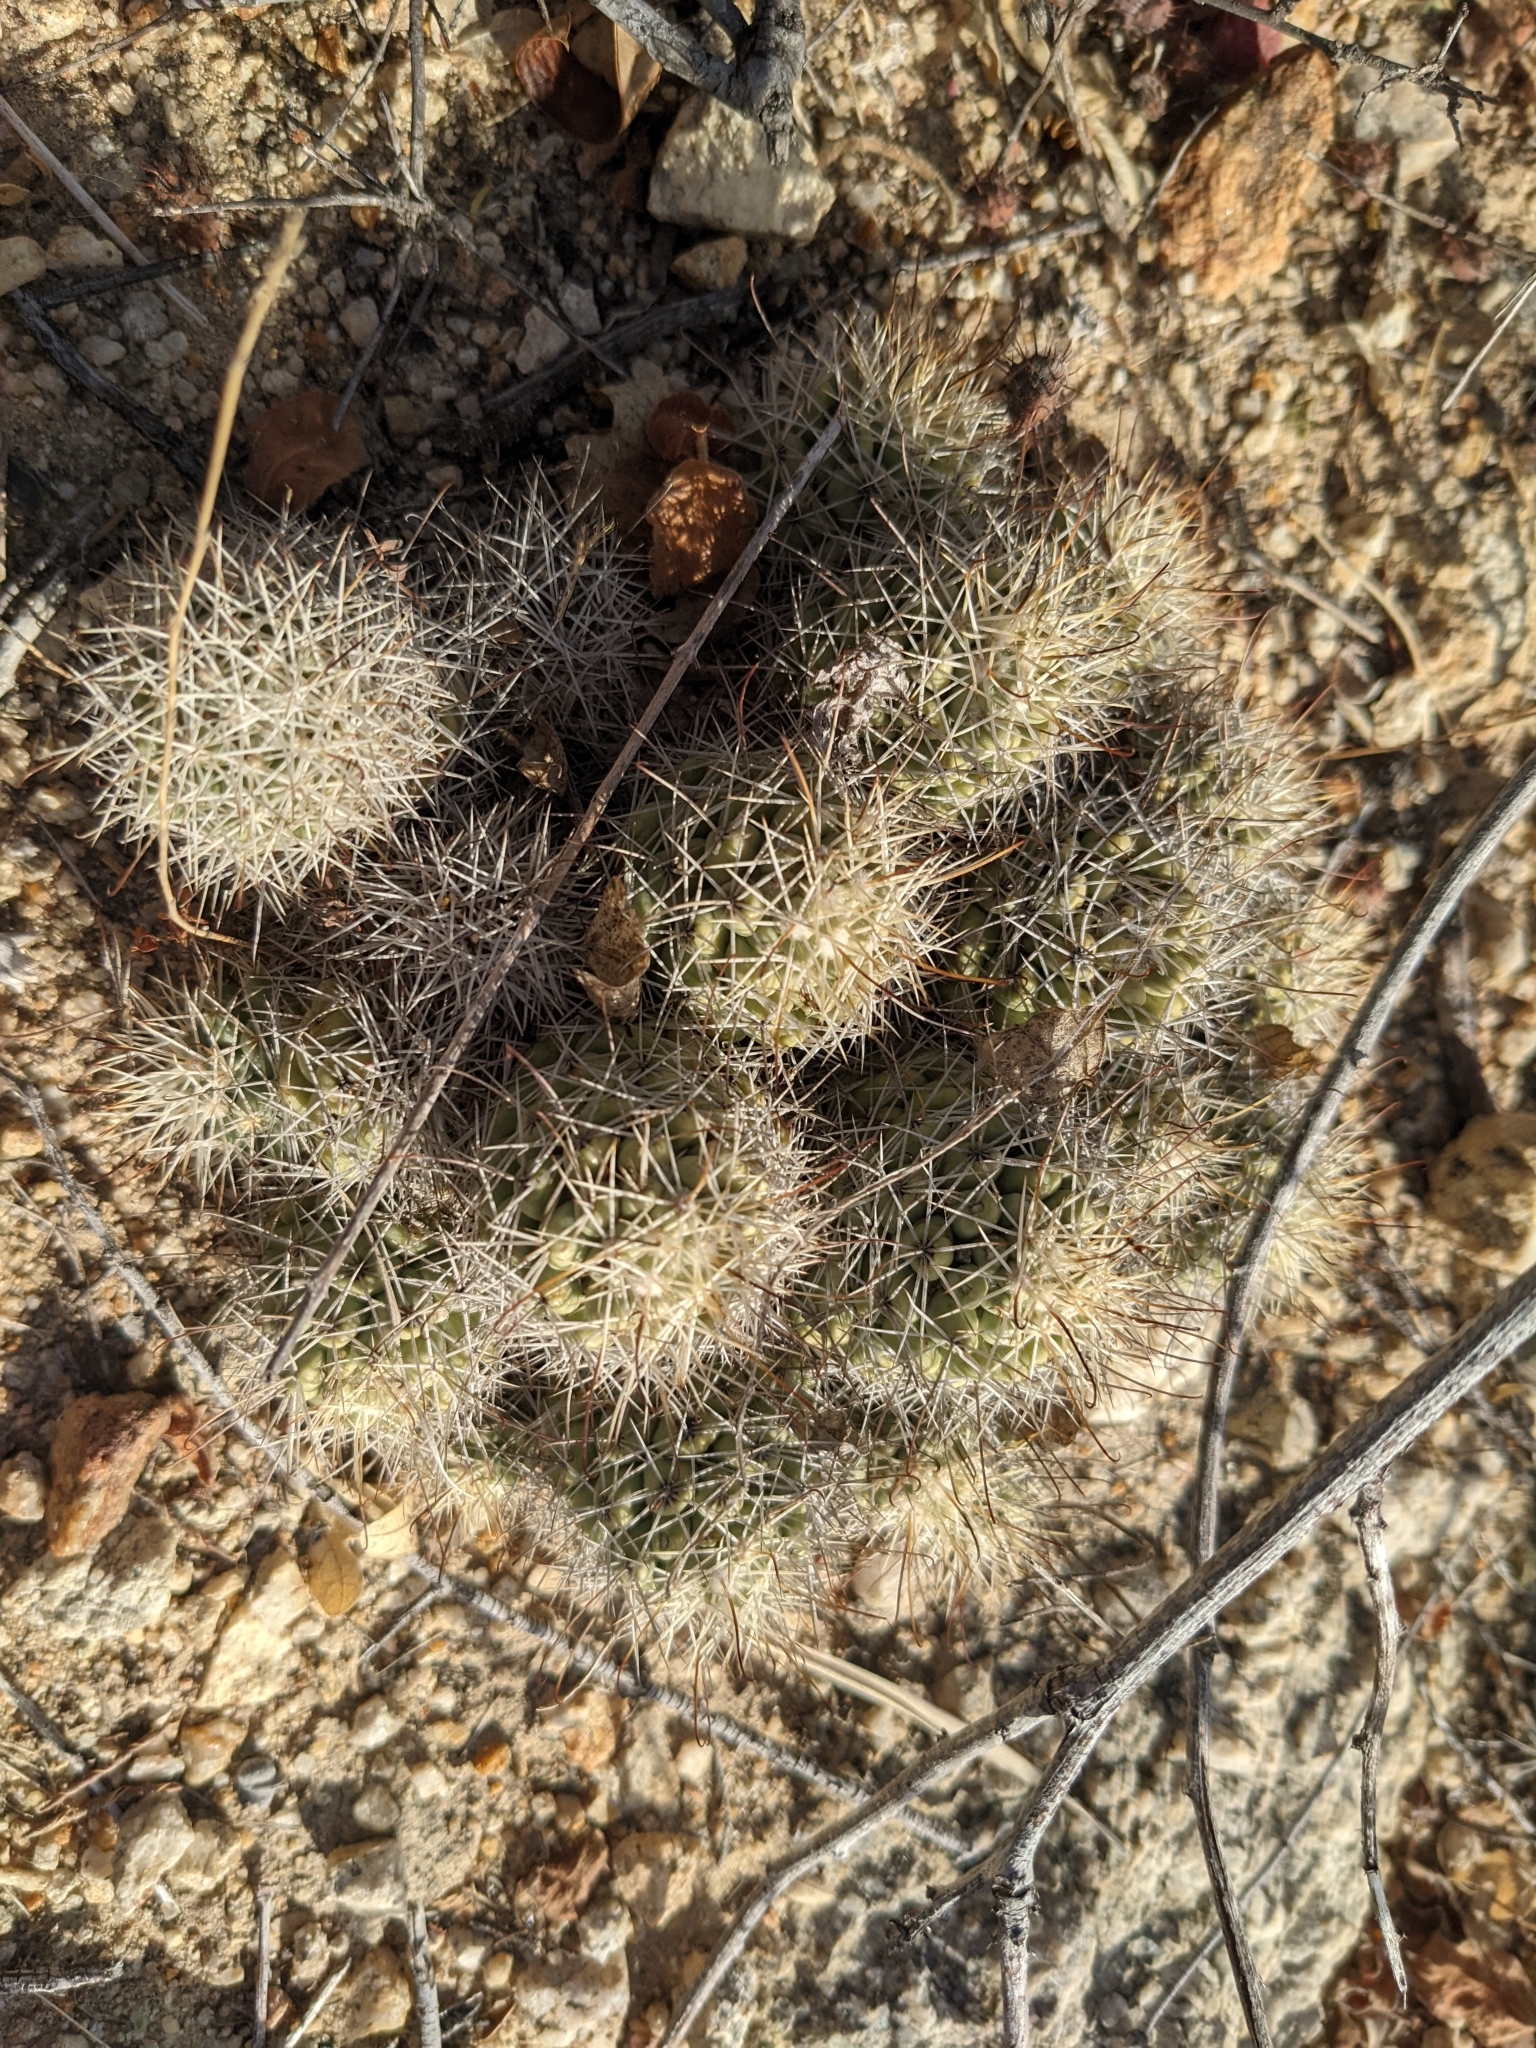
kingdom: Plantae
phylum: Tracheophyta
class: Magnoliopsida
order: Caryophyllales
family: Cactaceae
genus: Cochemiea
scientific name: Cochemiea schumannii
